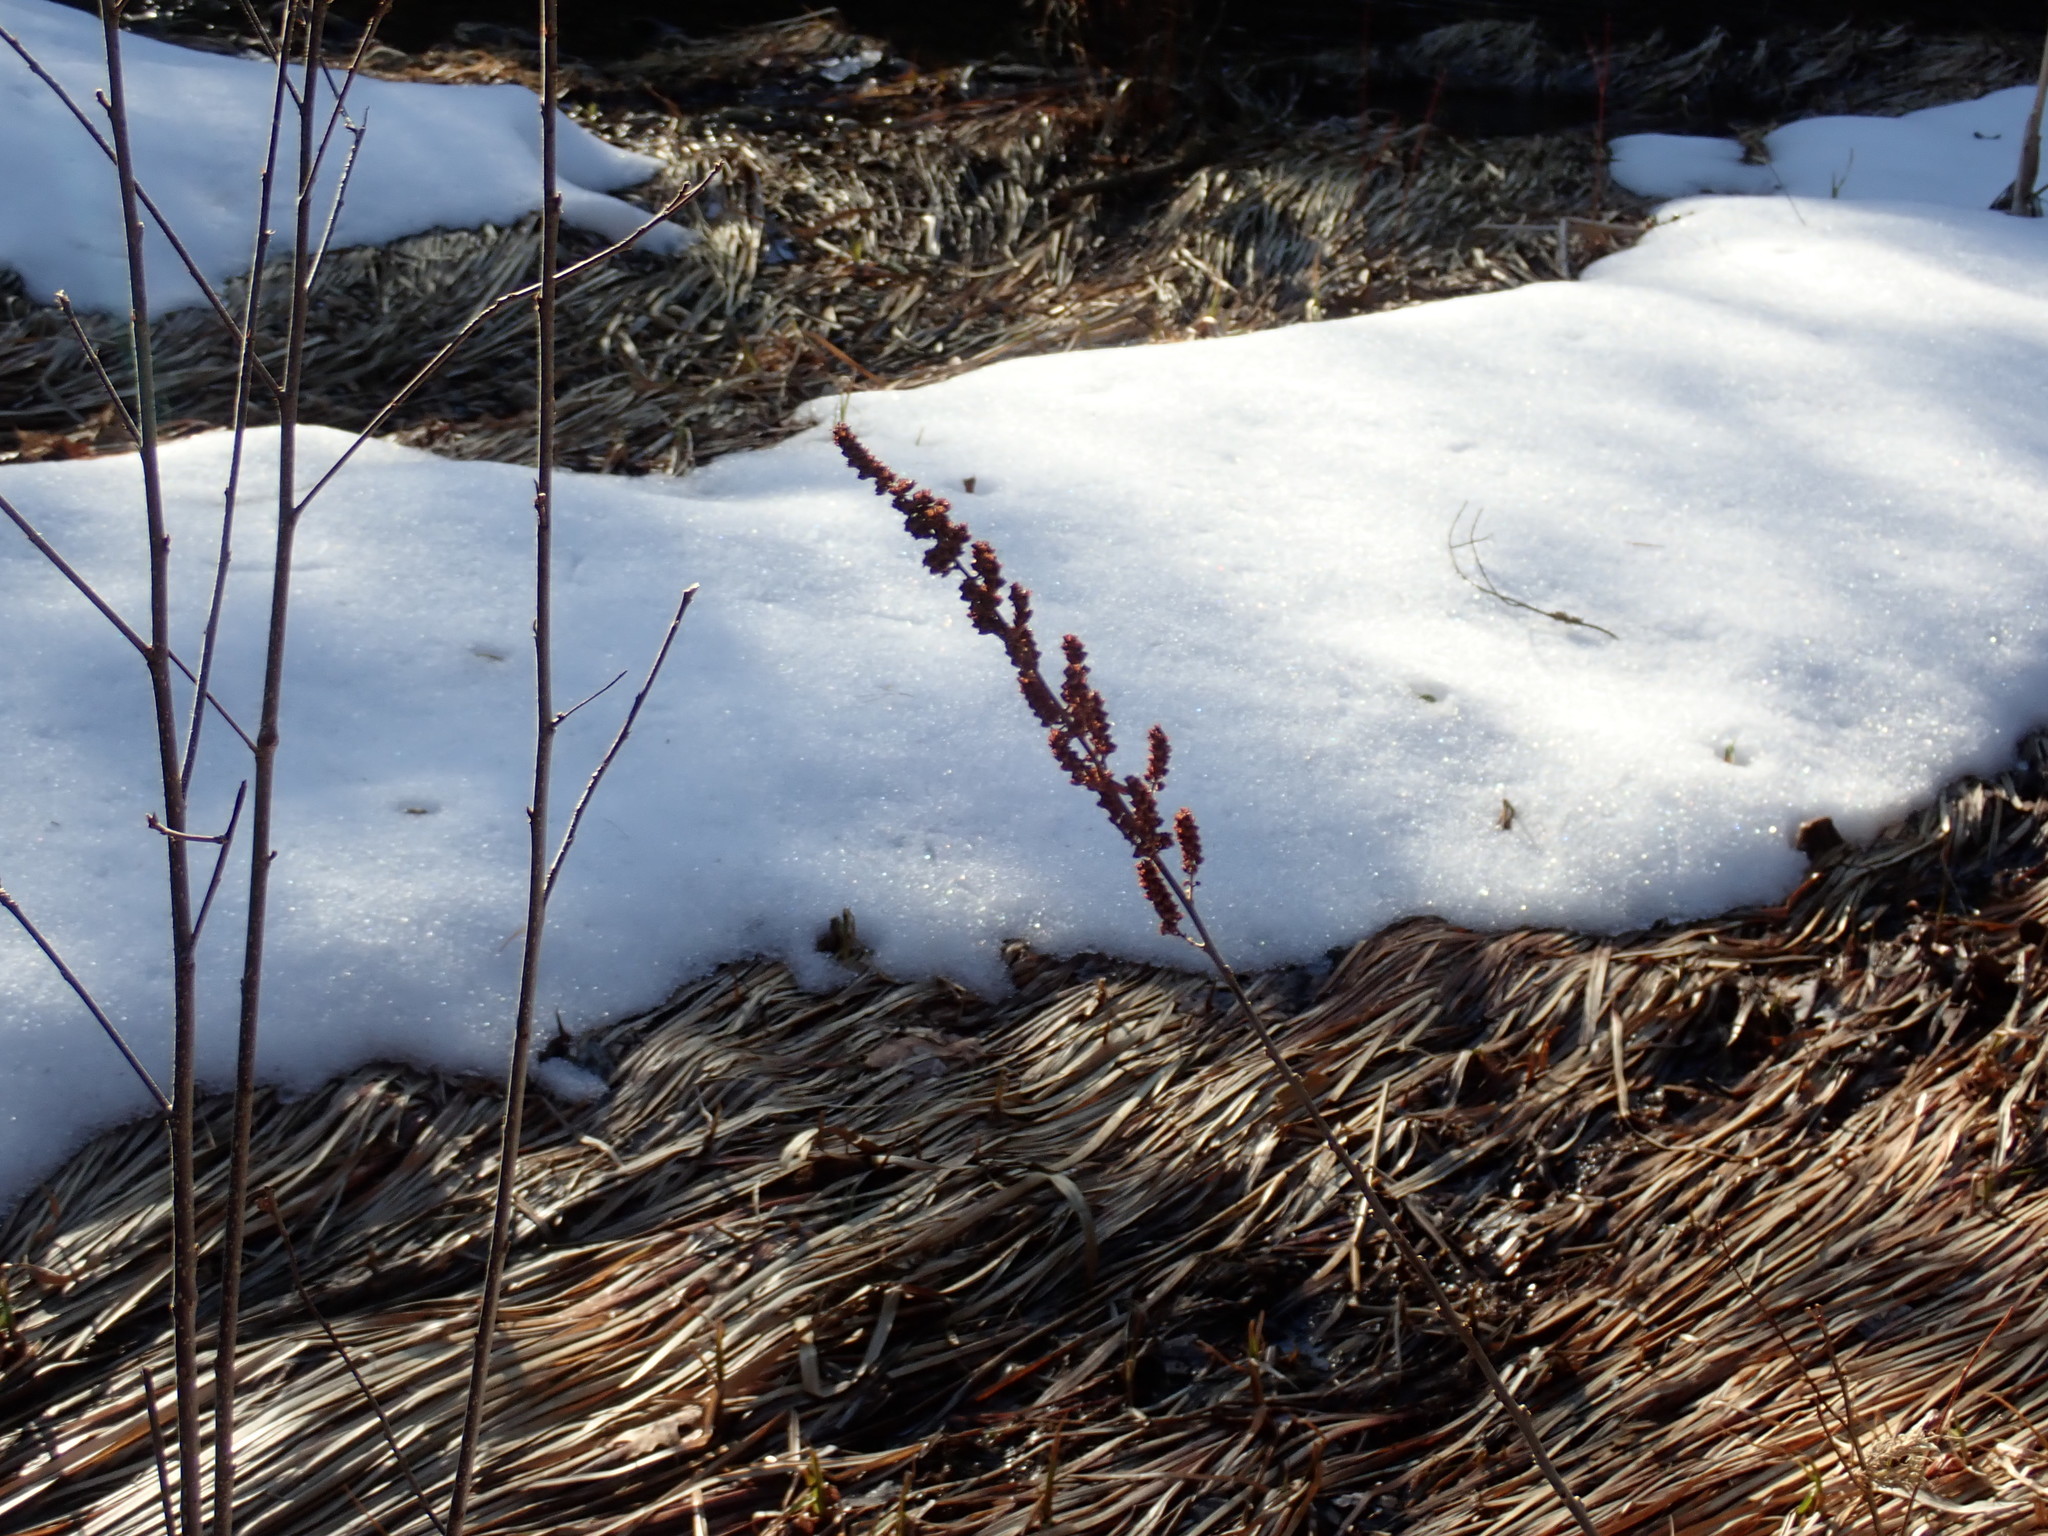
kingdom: Plantae
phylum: Tracheophyta
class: Magnoliopsida
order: Rosales
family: Rosaceae
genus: Spiraea
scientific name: Spiraea tomentosa
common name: Hardhack
